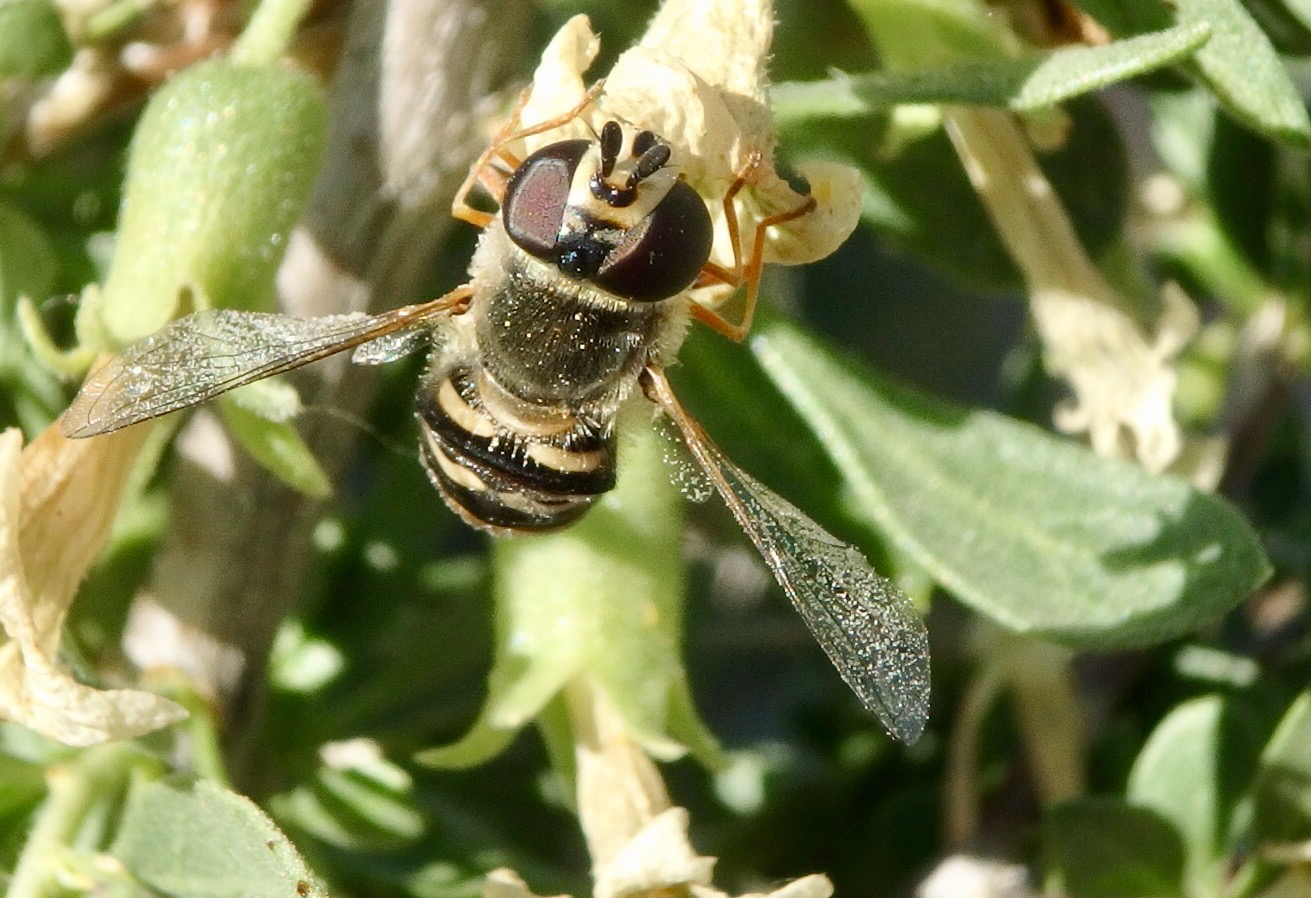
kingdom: Animalia
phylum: Arthropoda
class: Insecta
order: Diptera
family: Syrphidae
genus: Eupeodes
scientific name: Eupeodes volucris
